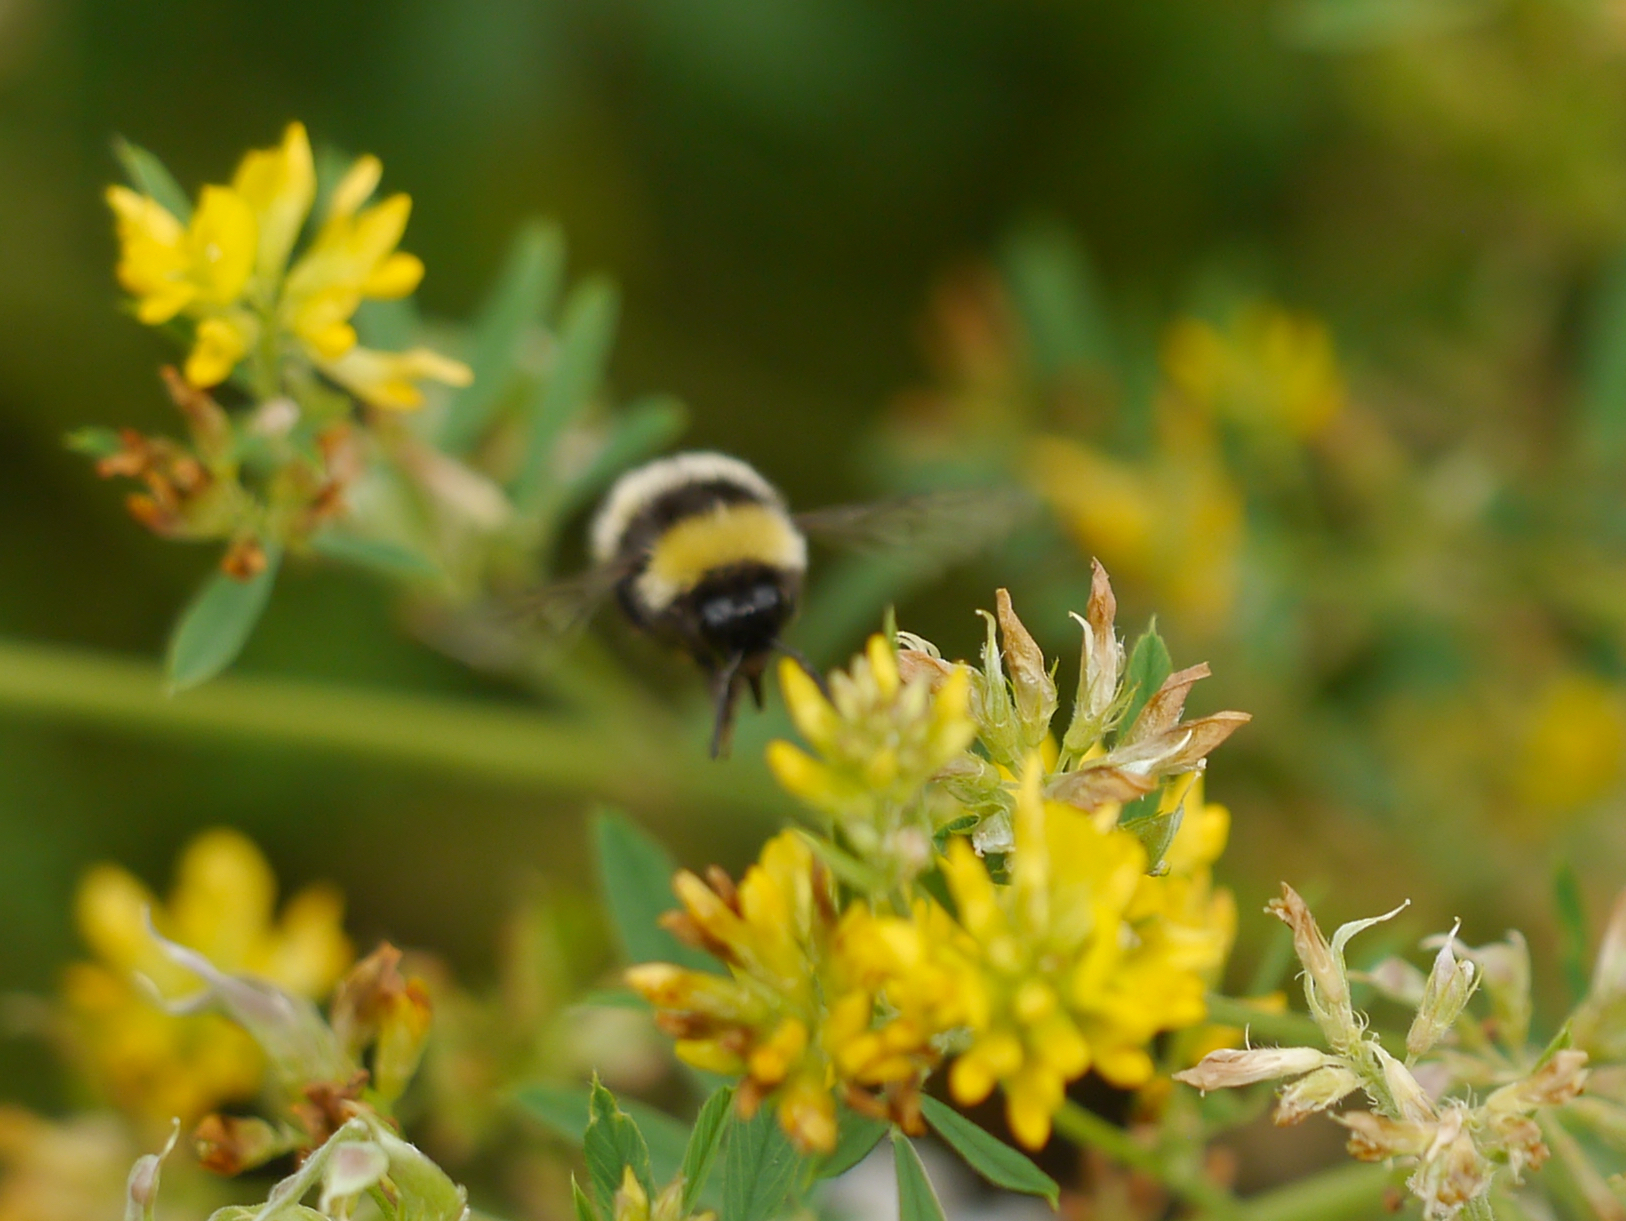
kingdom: Animalia
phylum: Arthropoda
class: Insecta
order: Hymenoptera
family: Apidae
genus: Bombus
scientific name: Bombus cryptarum
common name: Cryptic bumblebee
